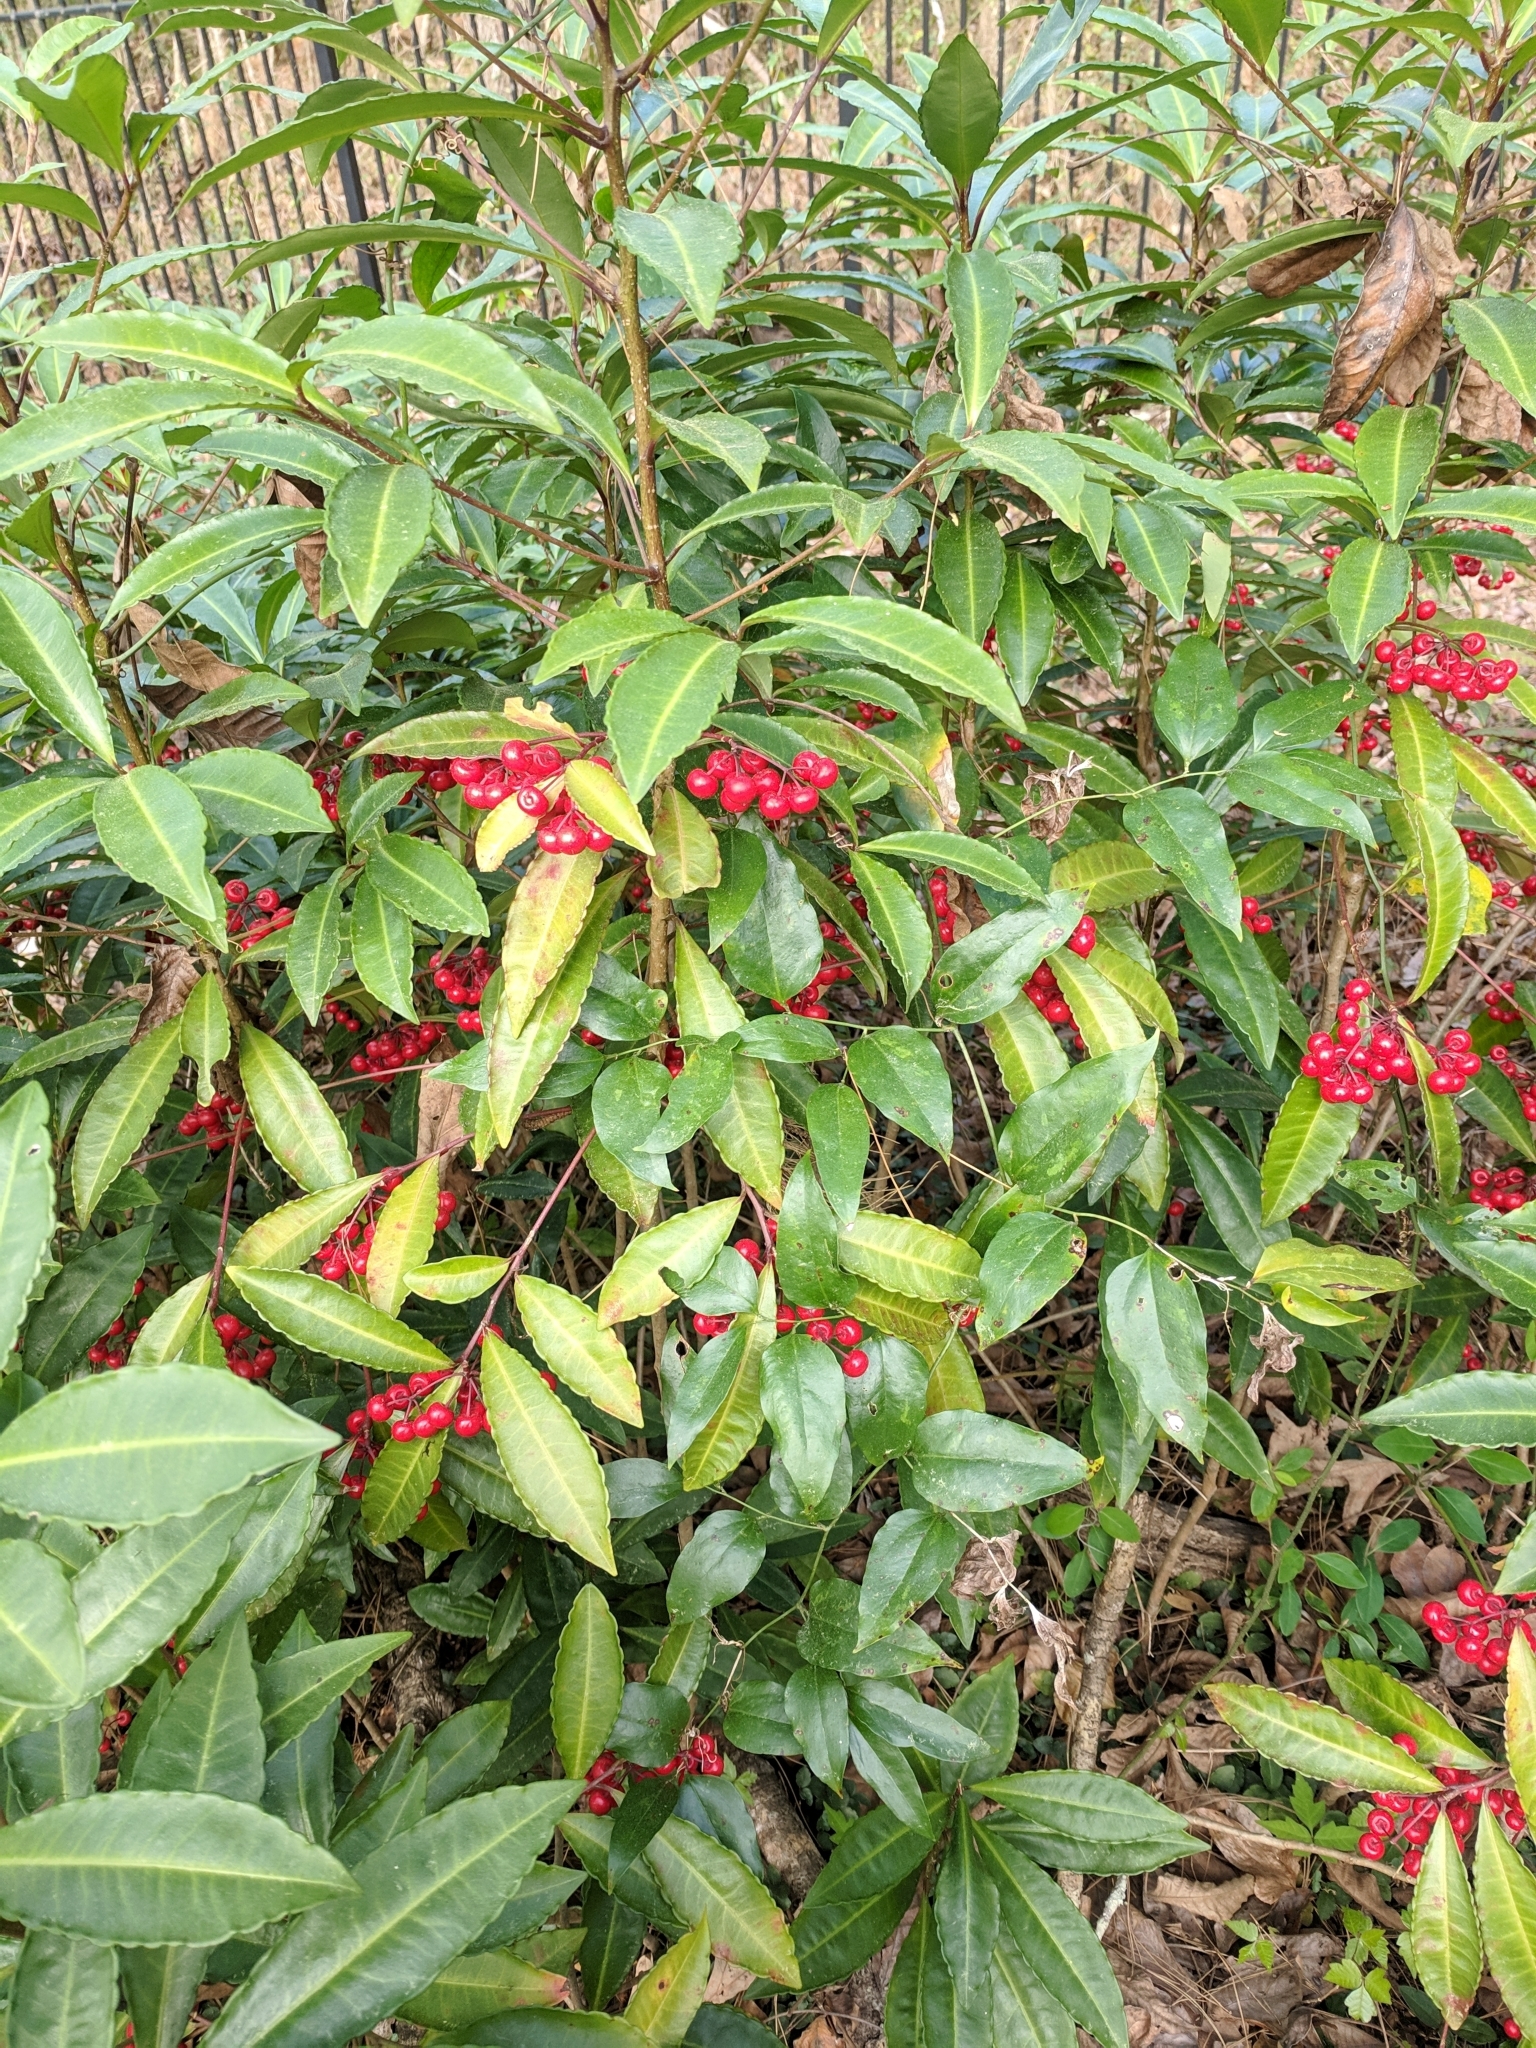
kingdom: Plantae
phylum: Tracheophyta
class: Magnoliopsida
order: Ericales
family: Primulaceae
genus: Ardisia
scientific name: Ardisia crenata
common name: Hen's eyes
